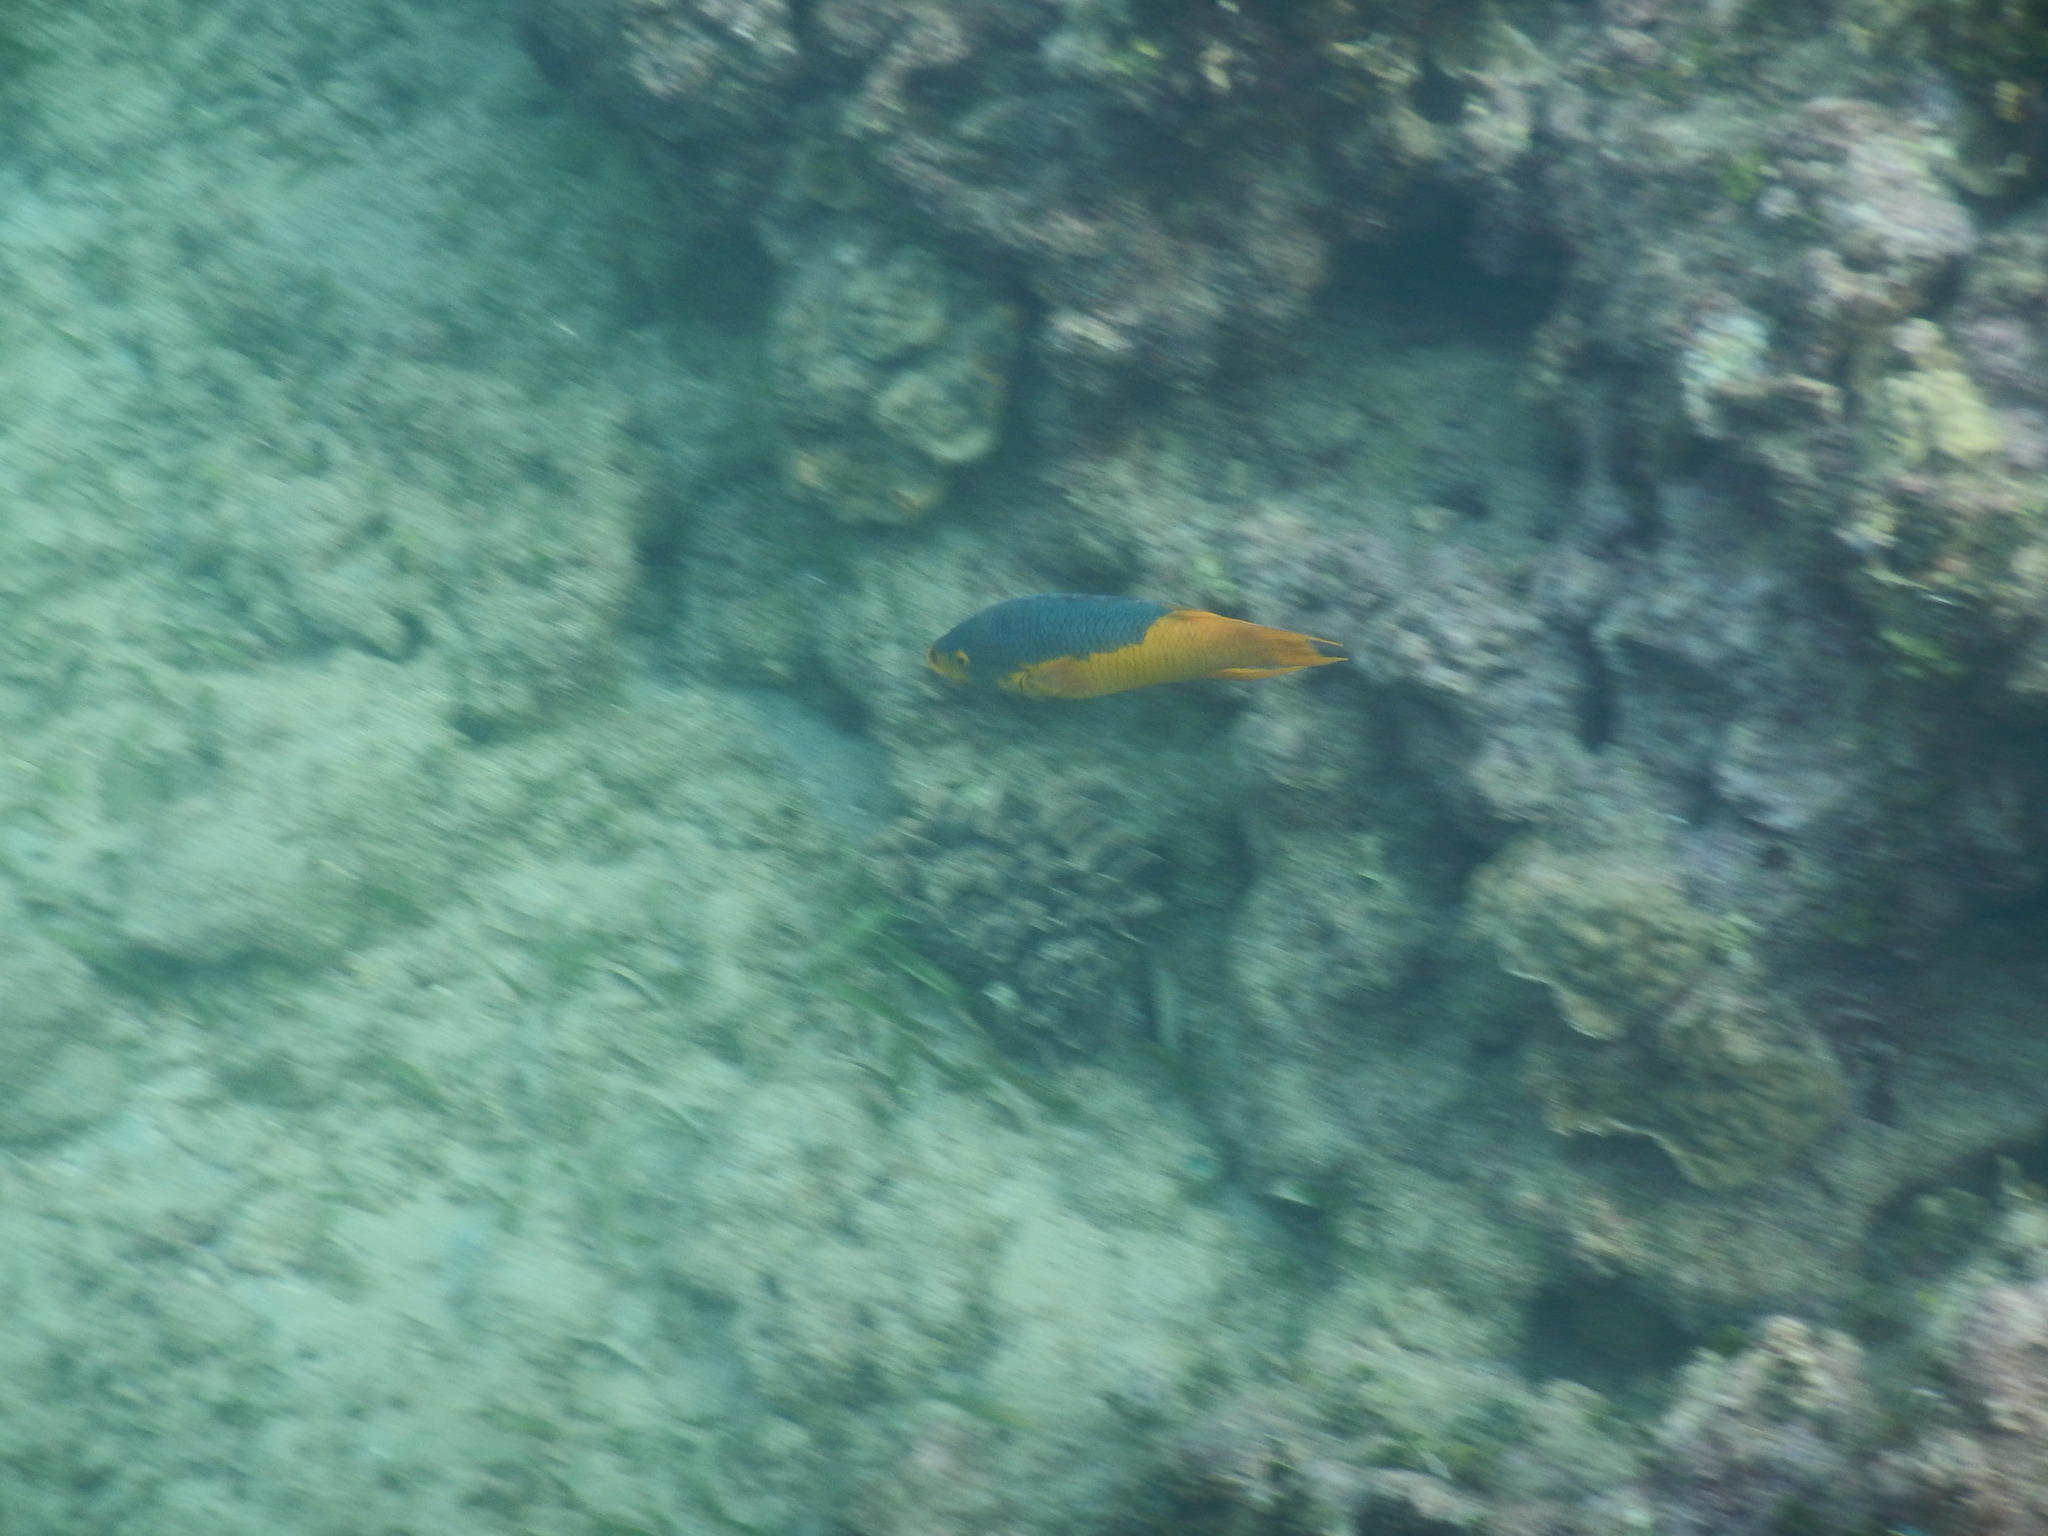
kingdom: Animalia
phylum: Chordata
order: Perciformes
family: Labridae
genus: Bodianus
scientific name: Bodianus rufus
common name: Spanish hogfish
